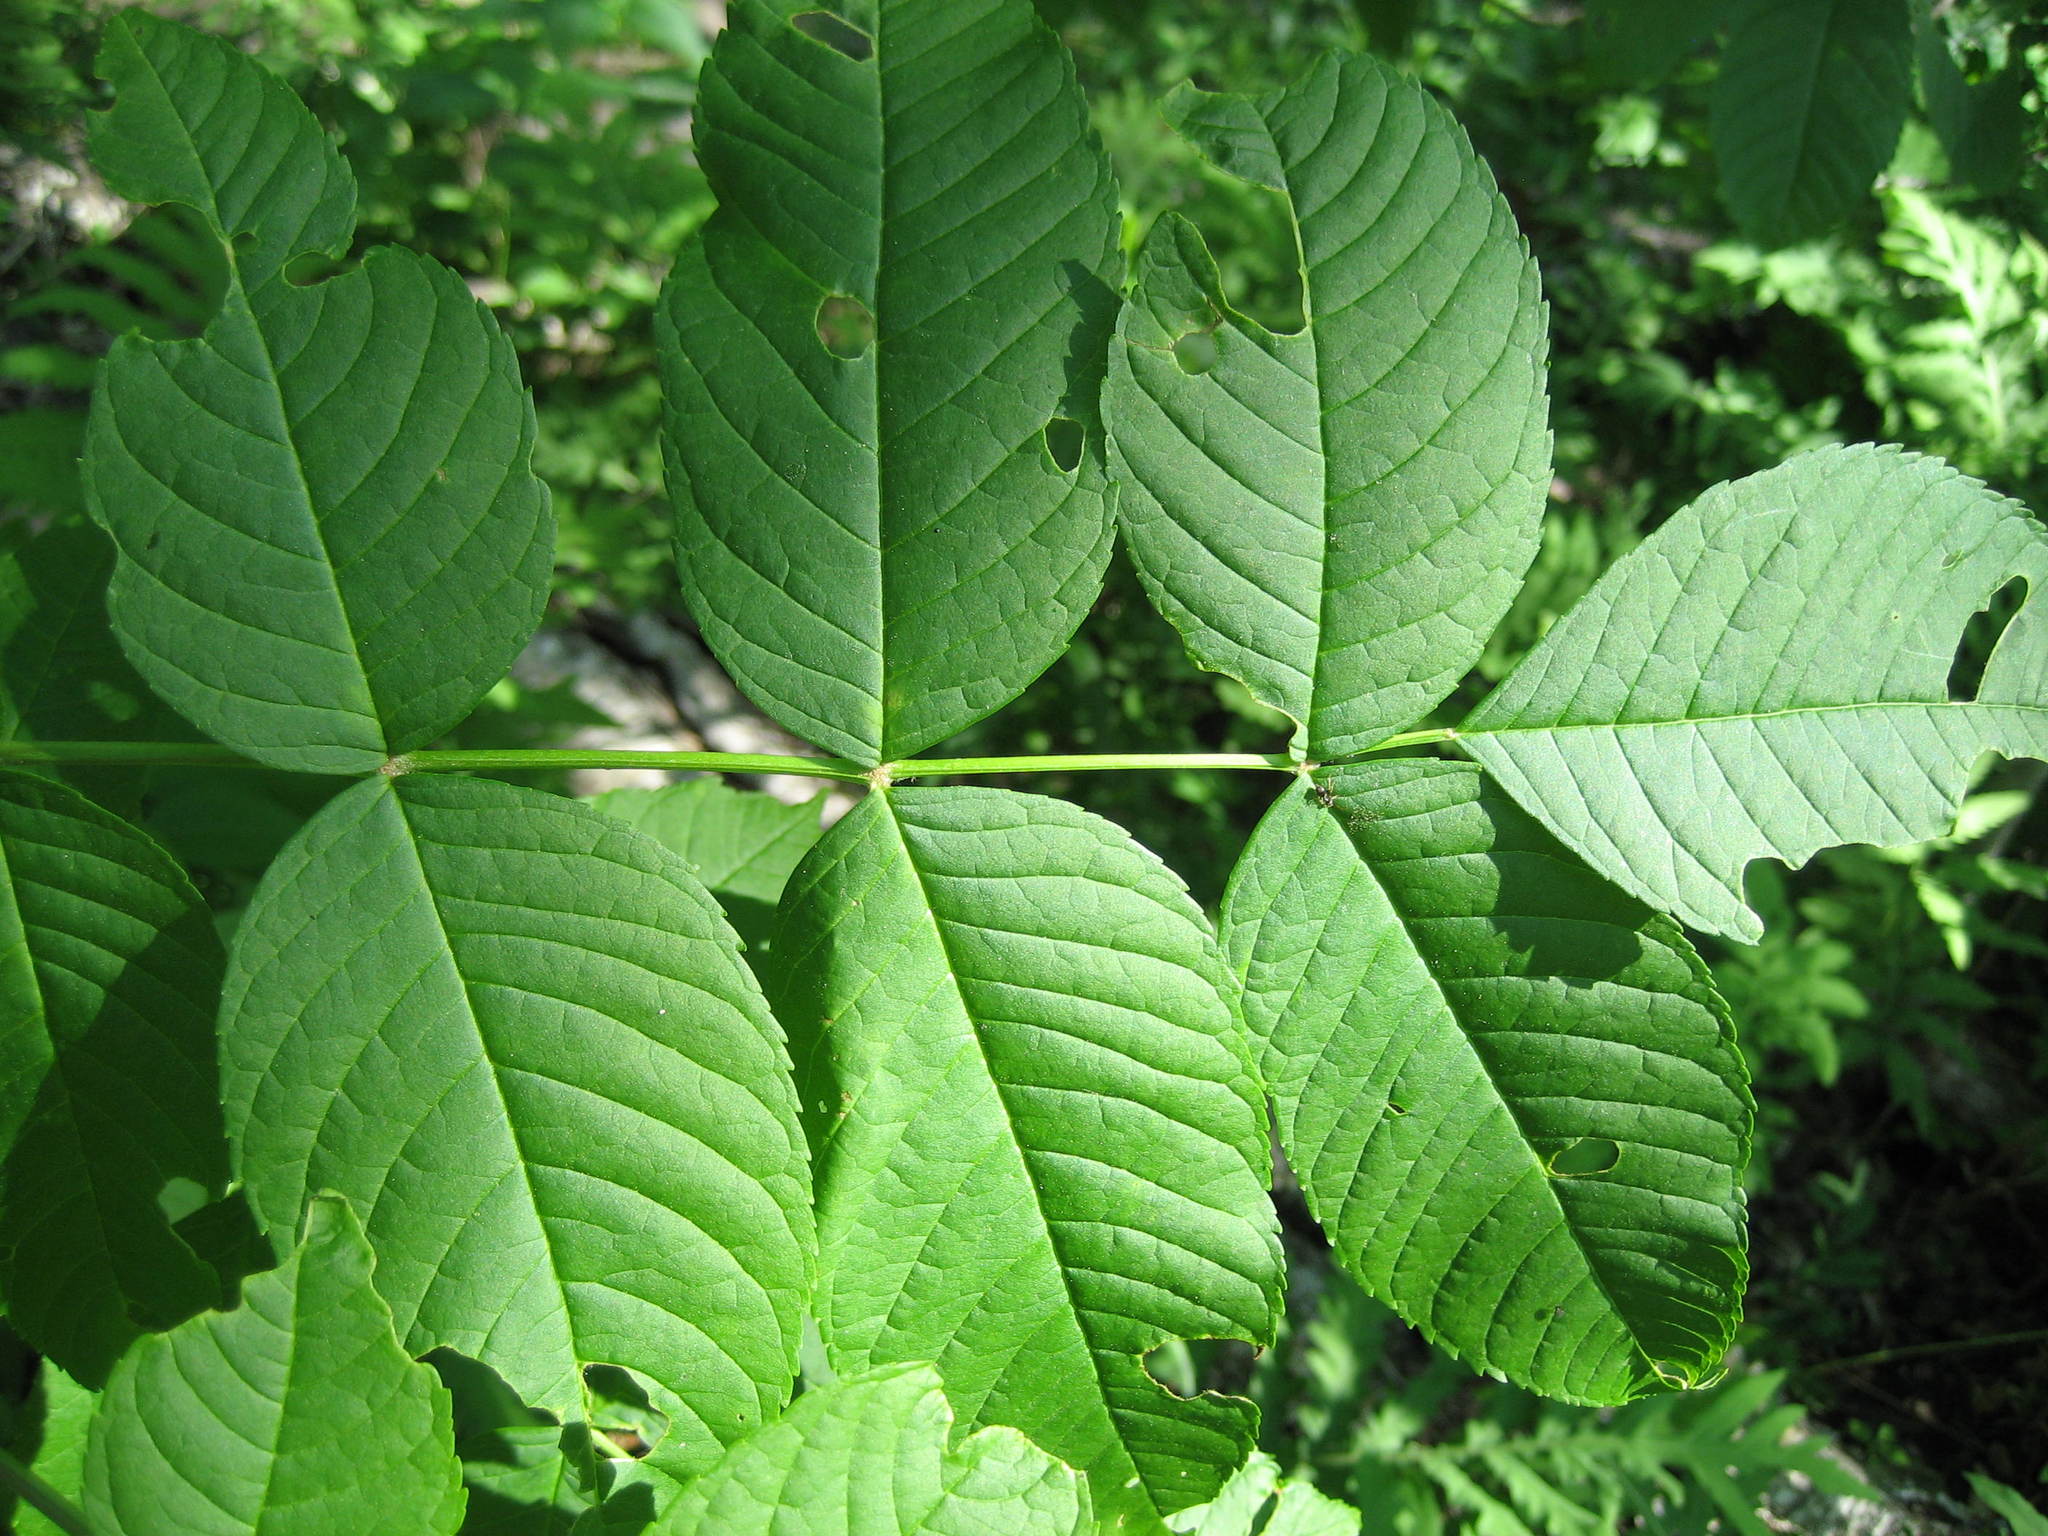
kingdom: Plantae
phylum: Tracheophyta
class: Magnoliopsida
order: Lamiales
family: Oleaceae
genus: Fraxinus
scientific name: Fraxinus nigra
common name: Black ash
